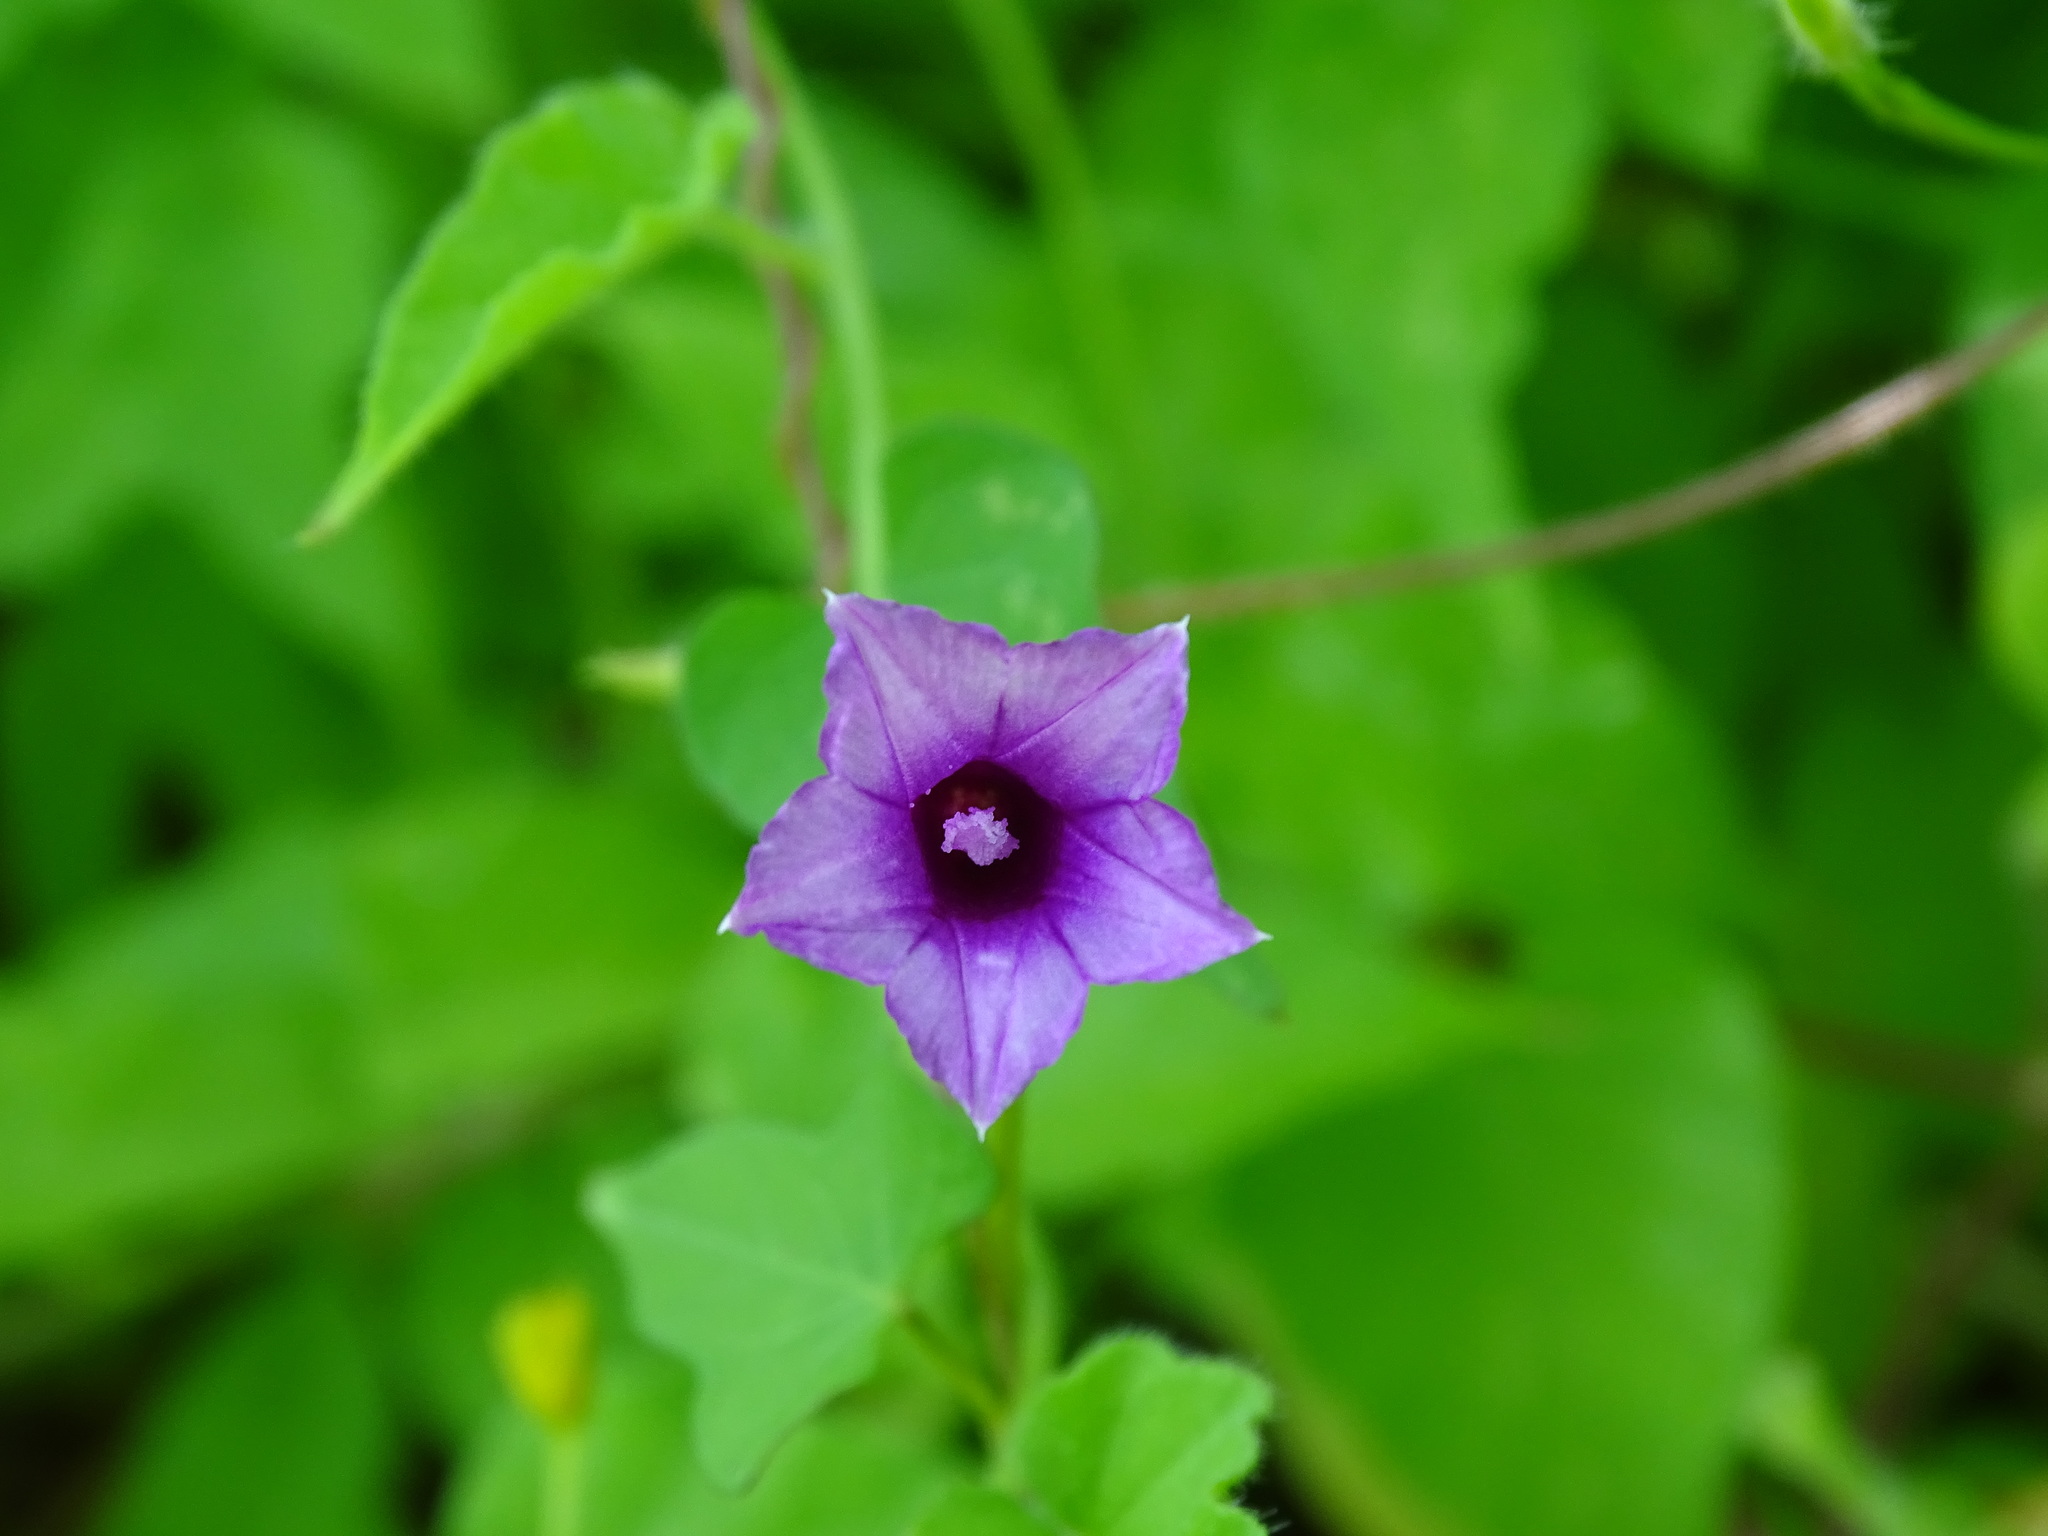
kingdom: Plantae
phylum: Tracheophyta
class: Magnoliopsida
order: Solanales
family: Convolvulaceae
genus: Ipomoea
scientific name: Ipomoea triloba
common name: Little-bell
